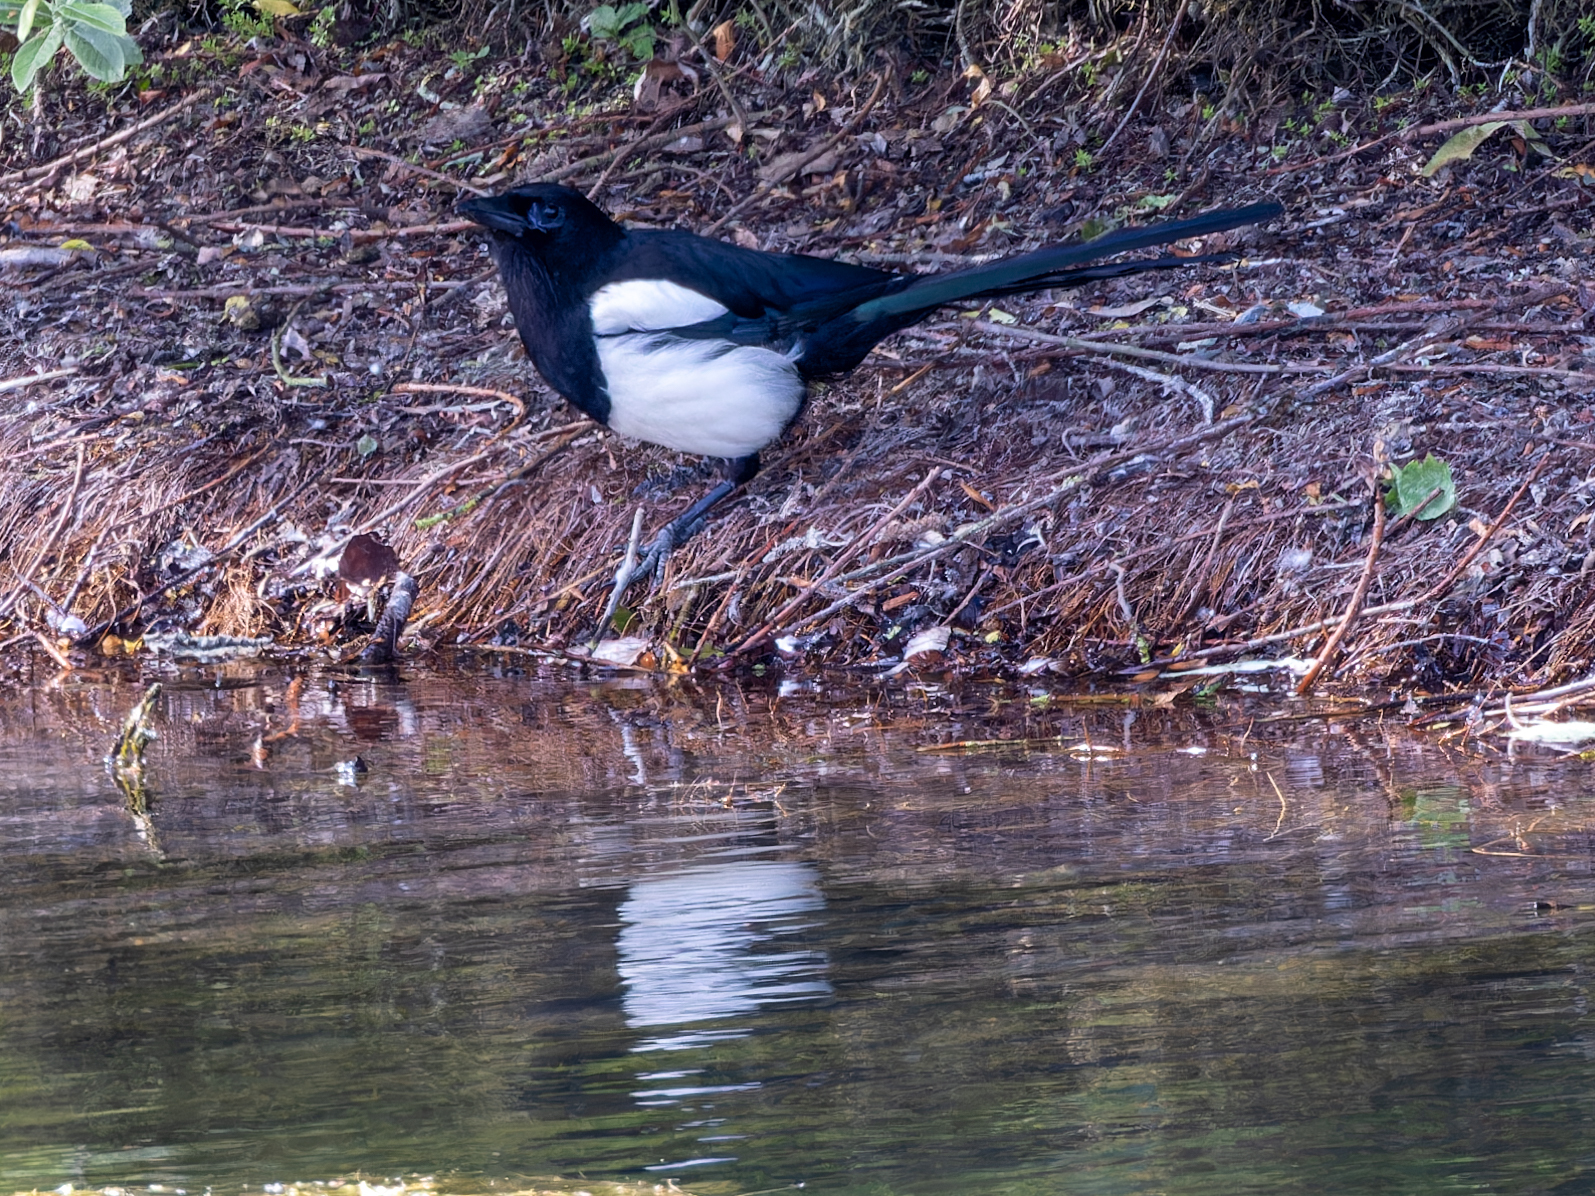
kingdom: Animalia
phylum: Chordata
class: Aves
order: Passeriformes
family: Corvidae
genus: Pica
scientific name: Pica pica
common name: Eurasian magpie
